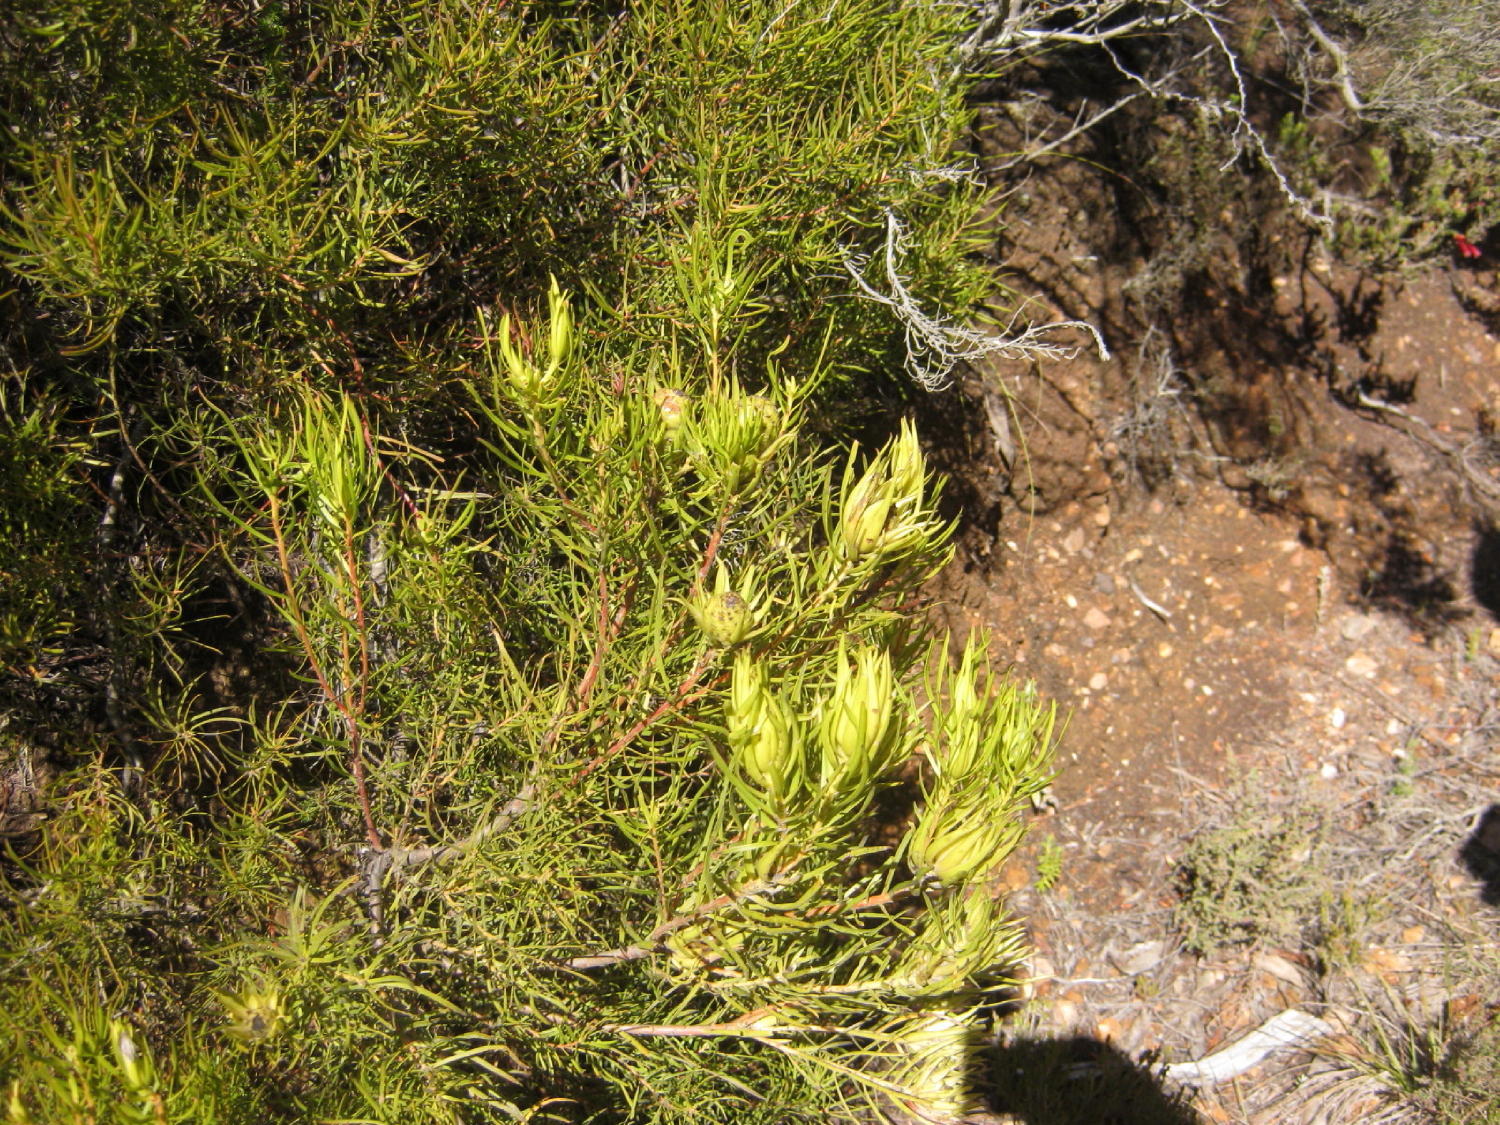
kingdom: Plantae
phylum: Tracheophyta
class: Magnoliopsida
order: Proteales
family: Proteaceae
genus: Leucadendron
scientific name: Leucadendron spissifolium
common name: Spear-leaf conebush
